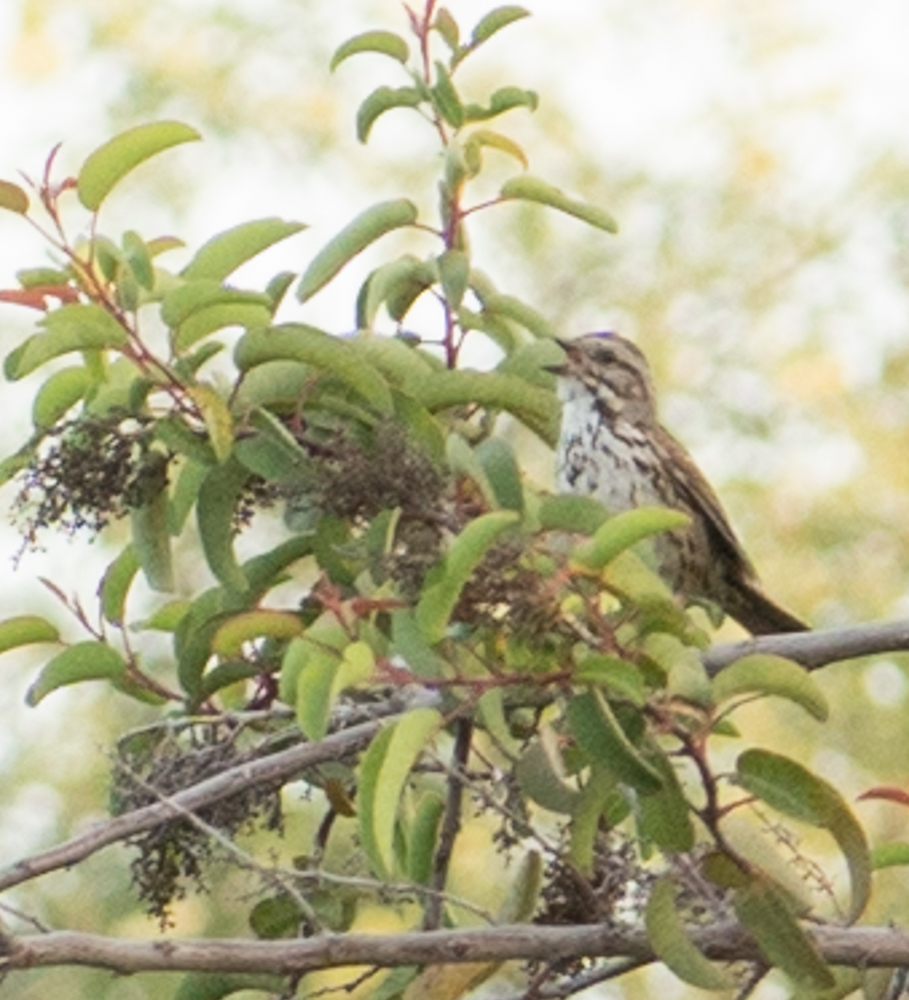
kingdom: Animalia
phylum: Chordata
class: Aves
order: Passeriformes
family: Passerellidae
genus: Melospiza
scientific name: Melospiza melodia
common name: Song sparrow
